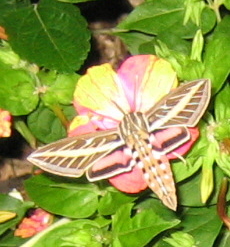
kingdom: Animalia
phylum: Arthropoda
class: Insecta
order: Lepidoptera
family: Sphingidae
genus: Hyles
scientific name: Hyles lineata
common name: White-lined sphinx
